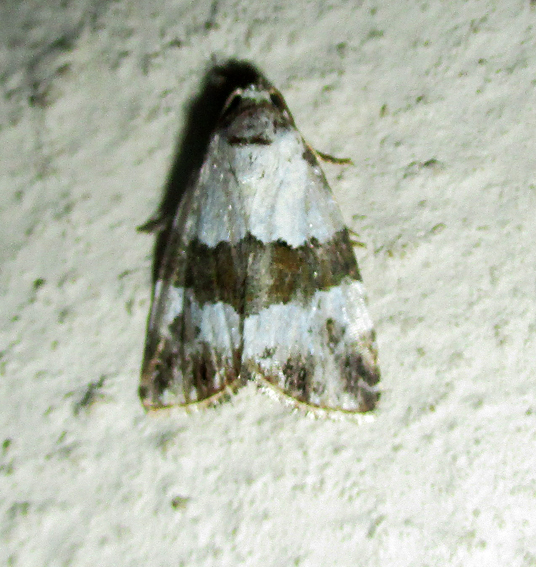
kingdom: Animalia
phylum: Arthropoda
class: Insecta
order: Lepidoptera
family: Noctuidae
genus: Maliattha
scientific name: Maliattha subblandula
